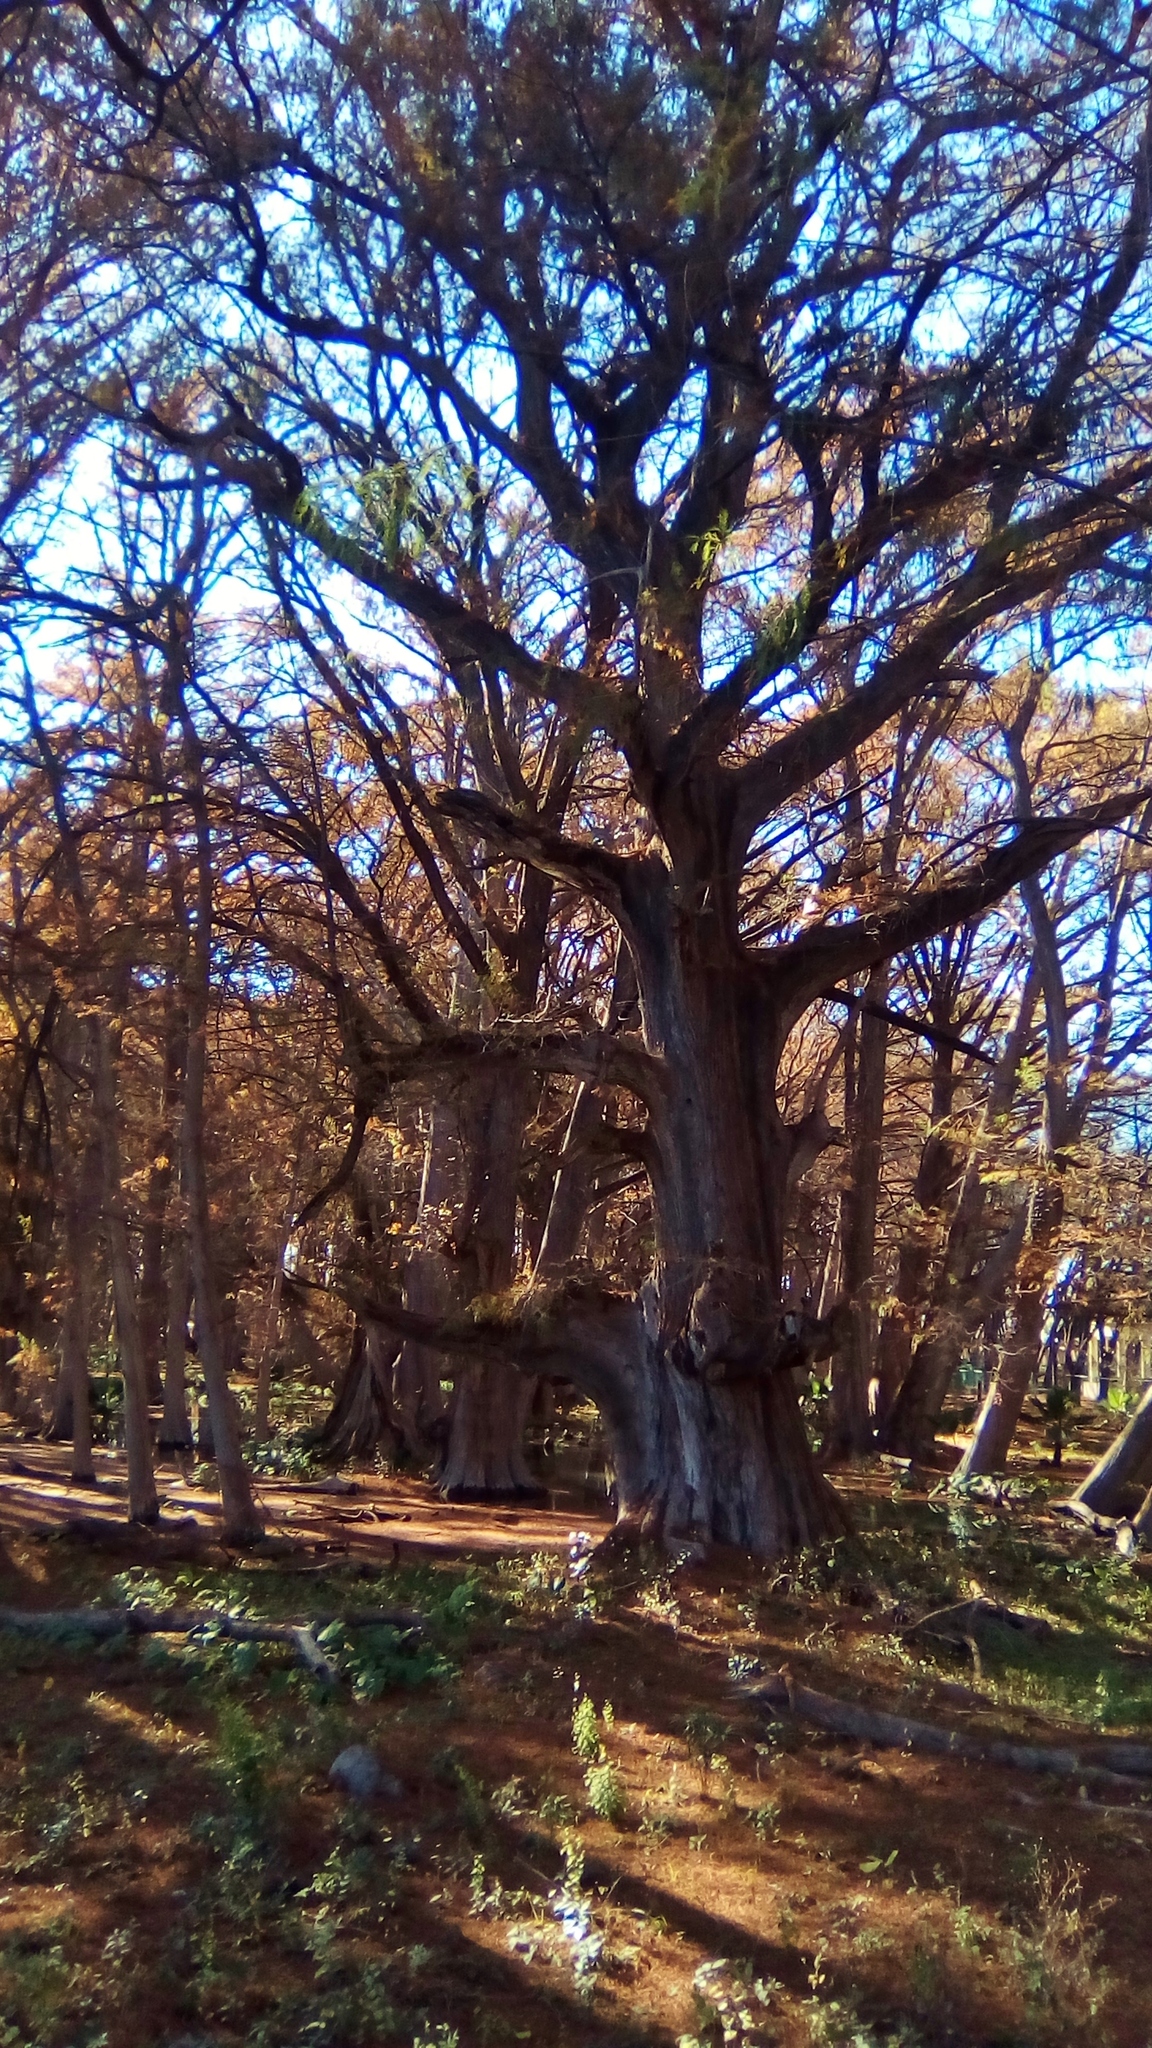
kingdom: Plantae
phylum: Tracheophyta
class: Pinopsida
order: Pinales
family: Cupressaceae
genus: Taxodium
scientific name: Taxodium mucronatum
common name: Montezume bald cypress
